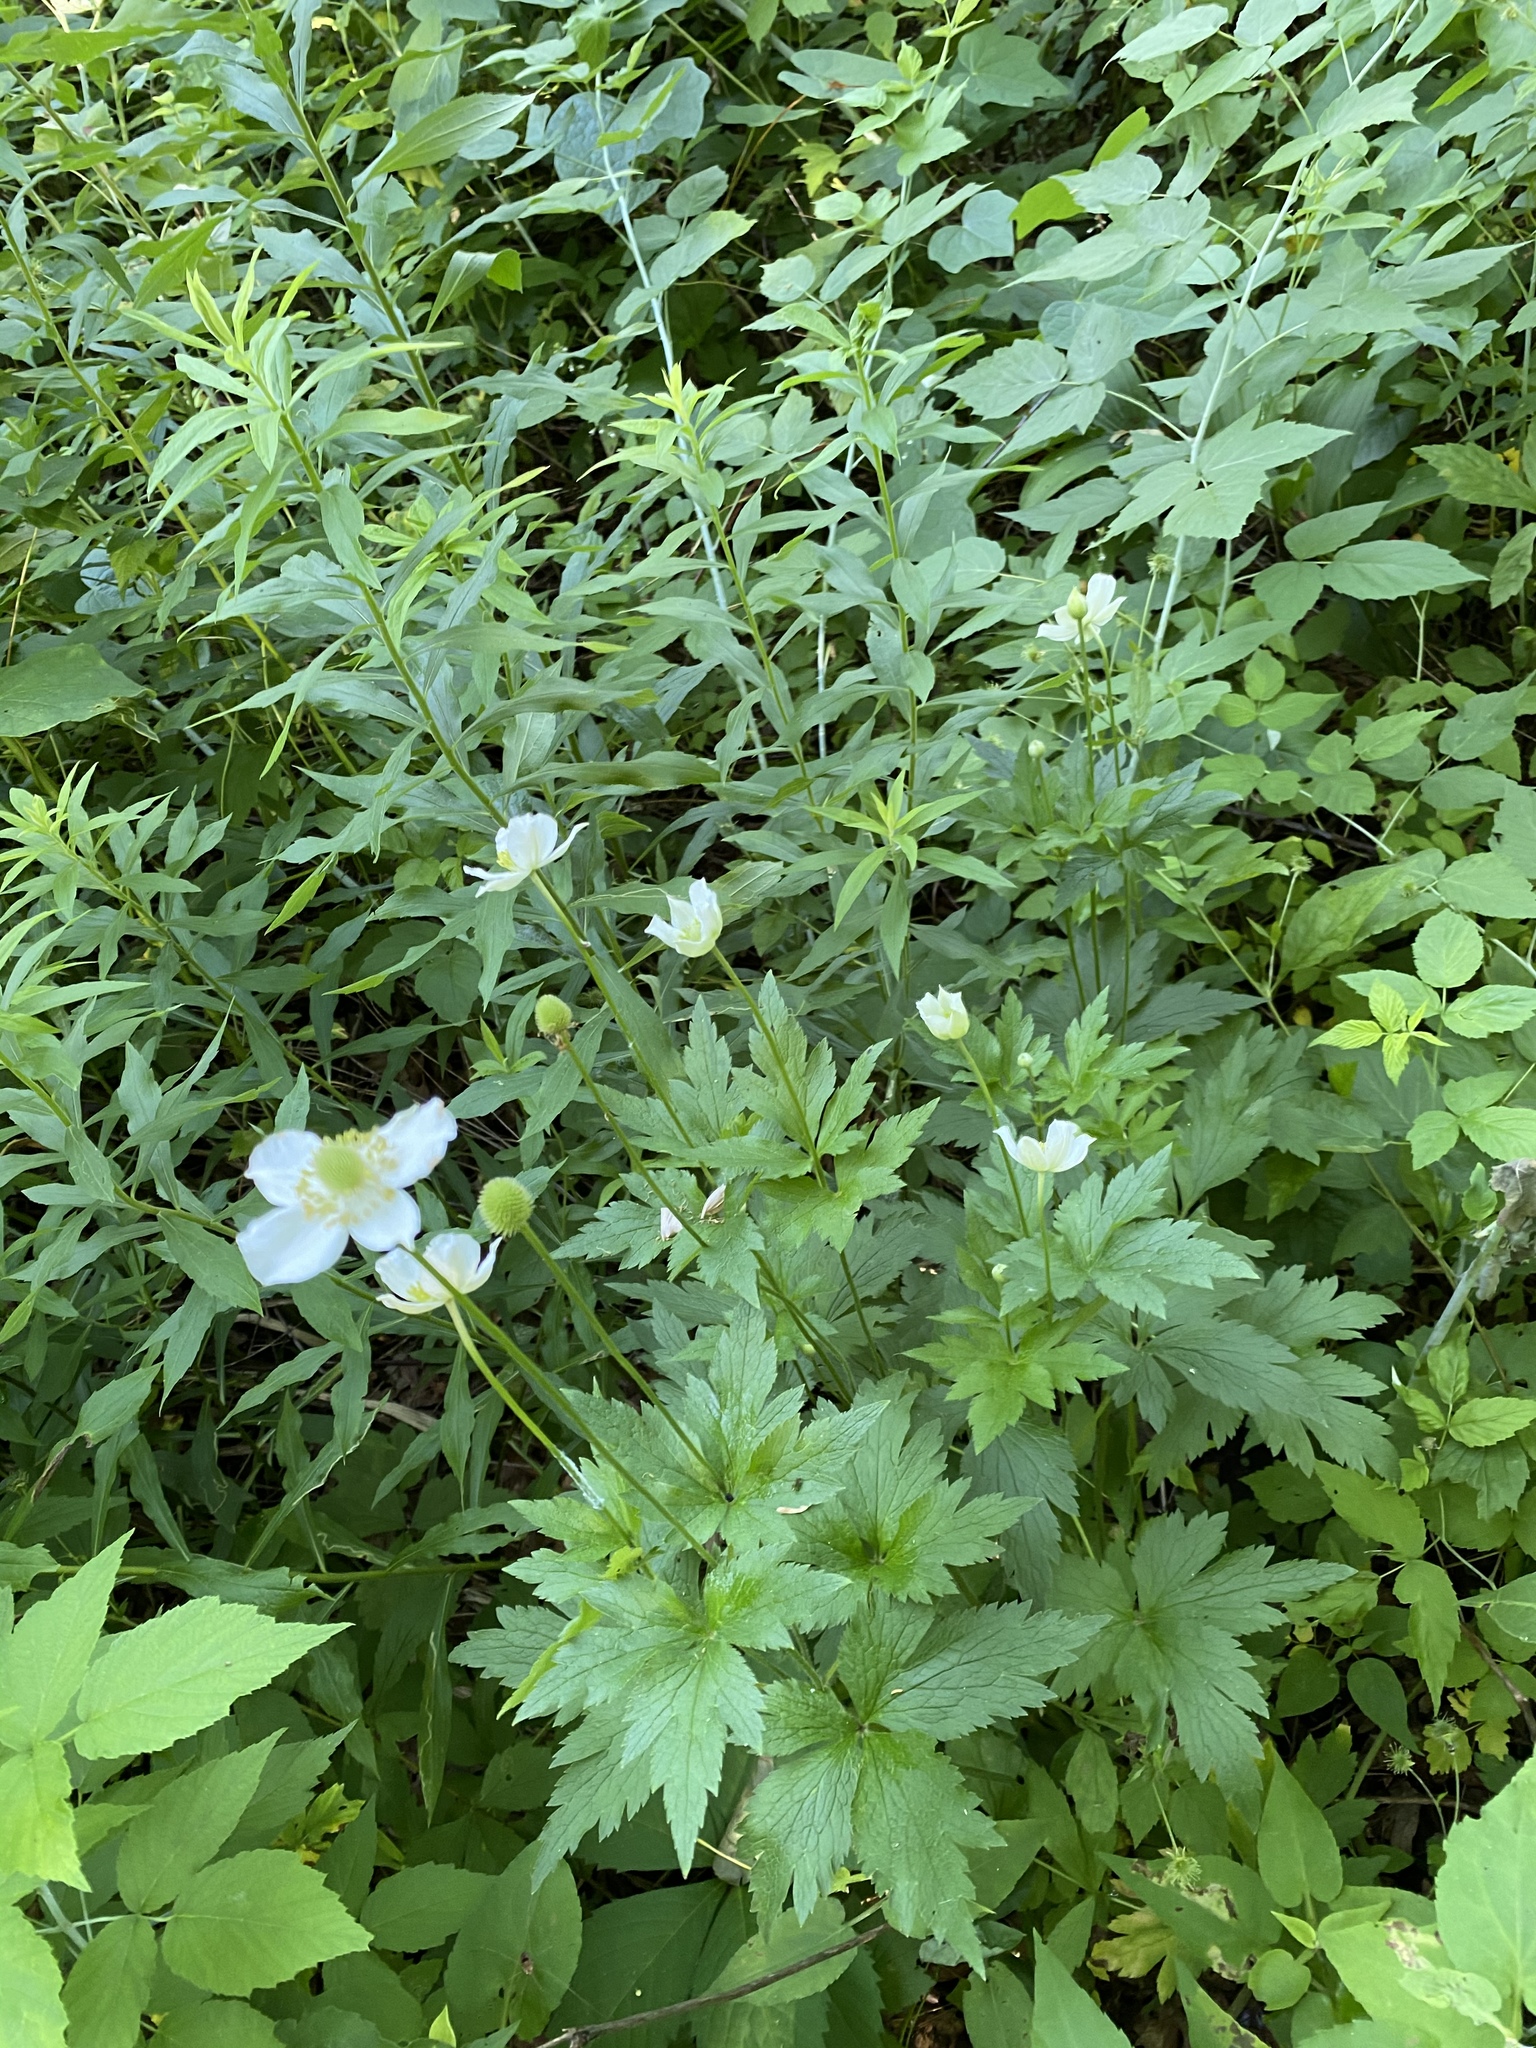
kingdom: Plantae
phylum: Tracheophyta
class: Magnoliopsida
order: Ranunculales
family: Ranunculaceae
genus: Anemone
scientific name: Anemone virginiana
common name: Tall anemone
